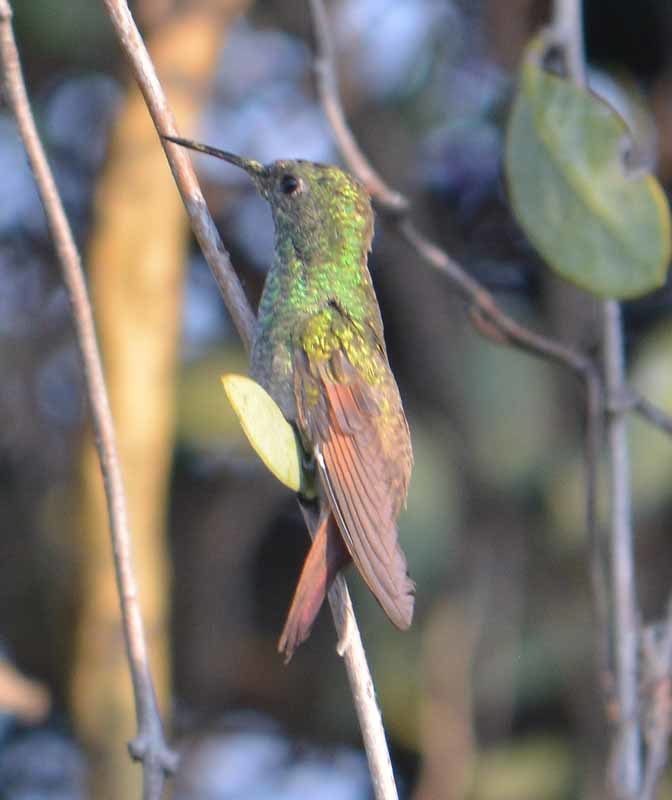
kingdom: Animalia
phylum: Chordata
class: Aves
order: Apodiformes
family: Trochilidae
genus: Saucerottia
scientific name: Saucerottia beryllina
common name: Berylline hummingbird
